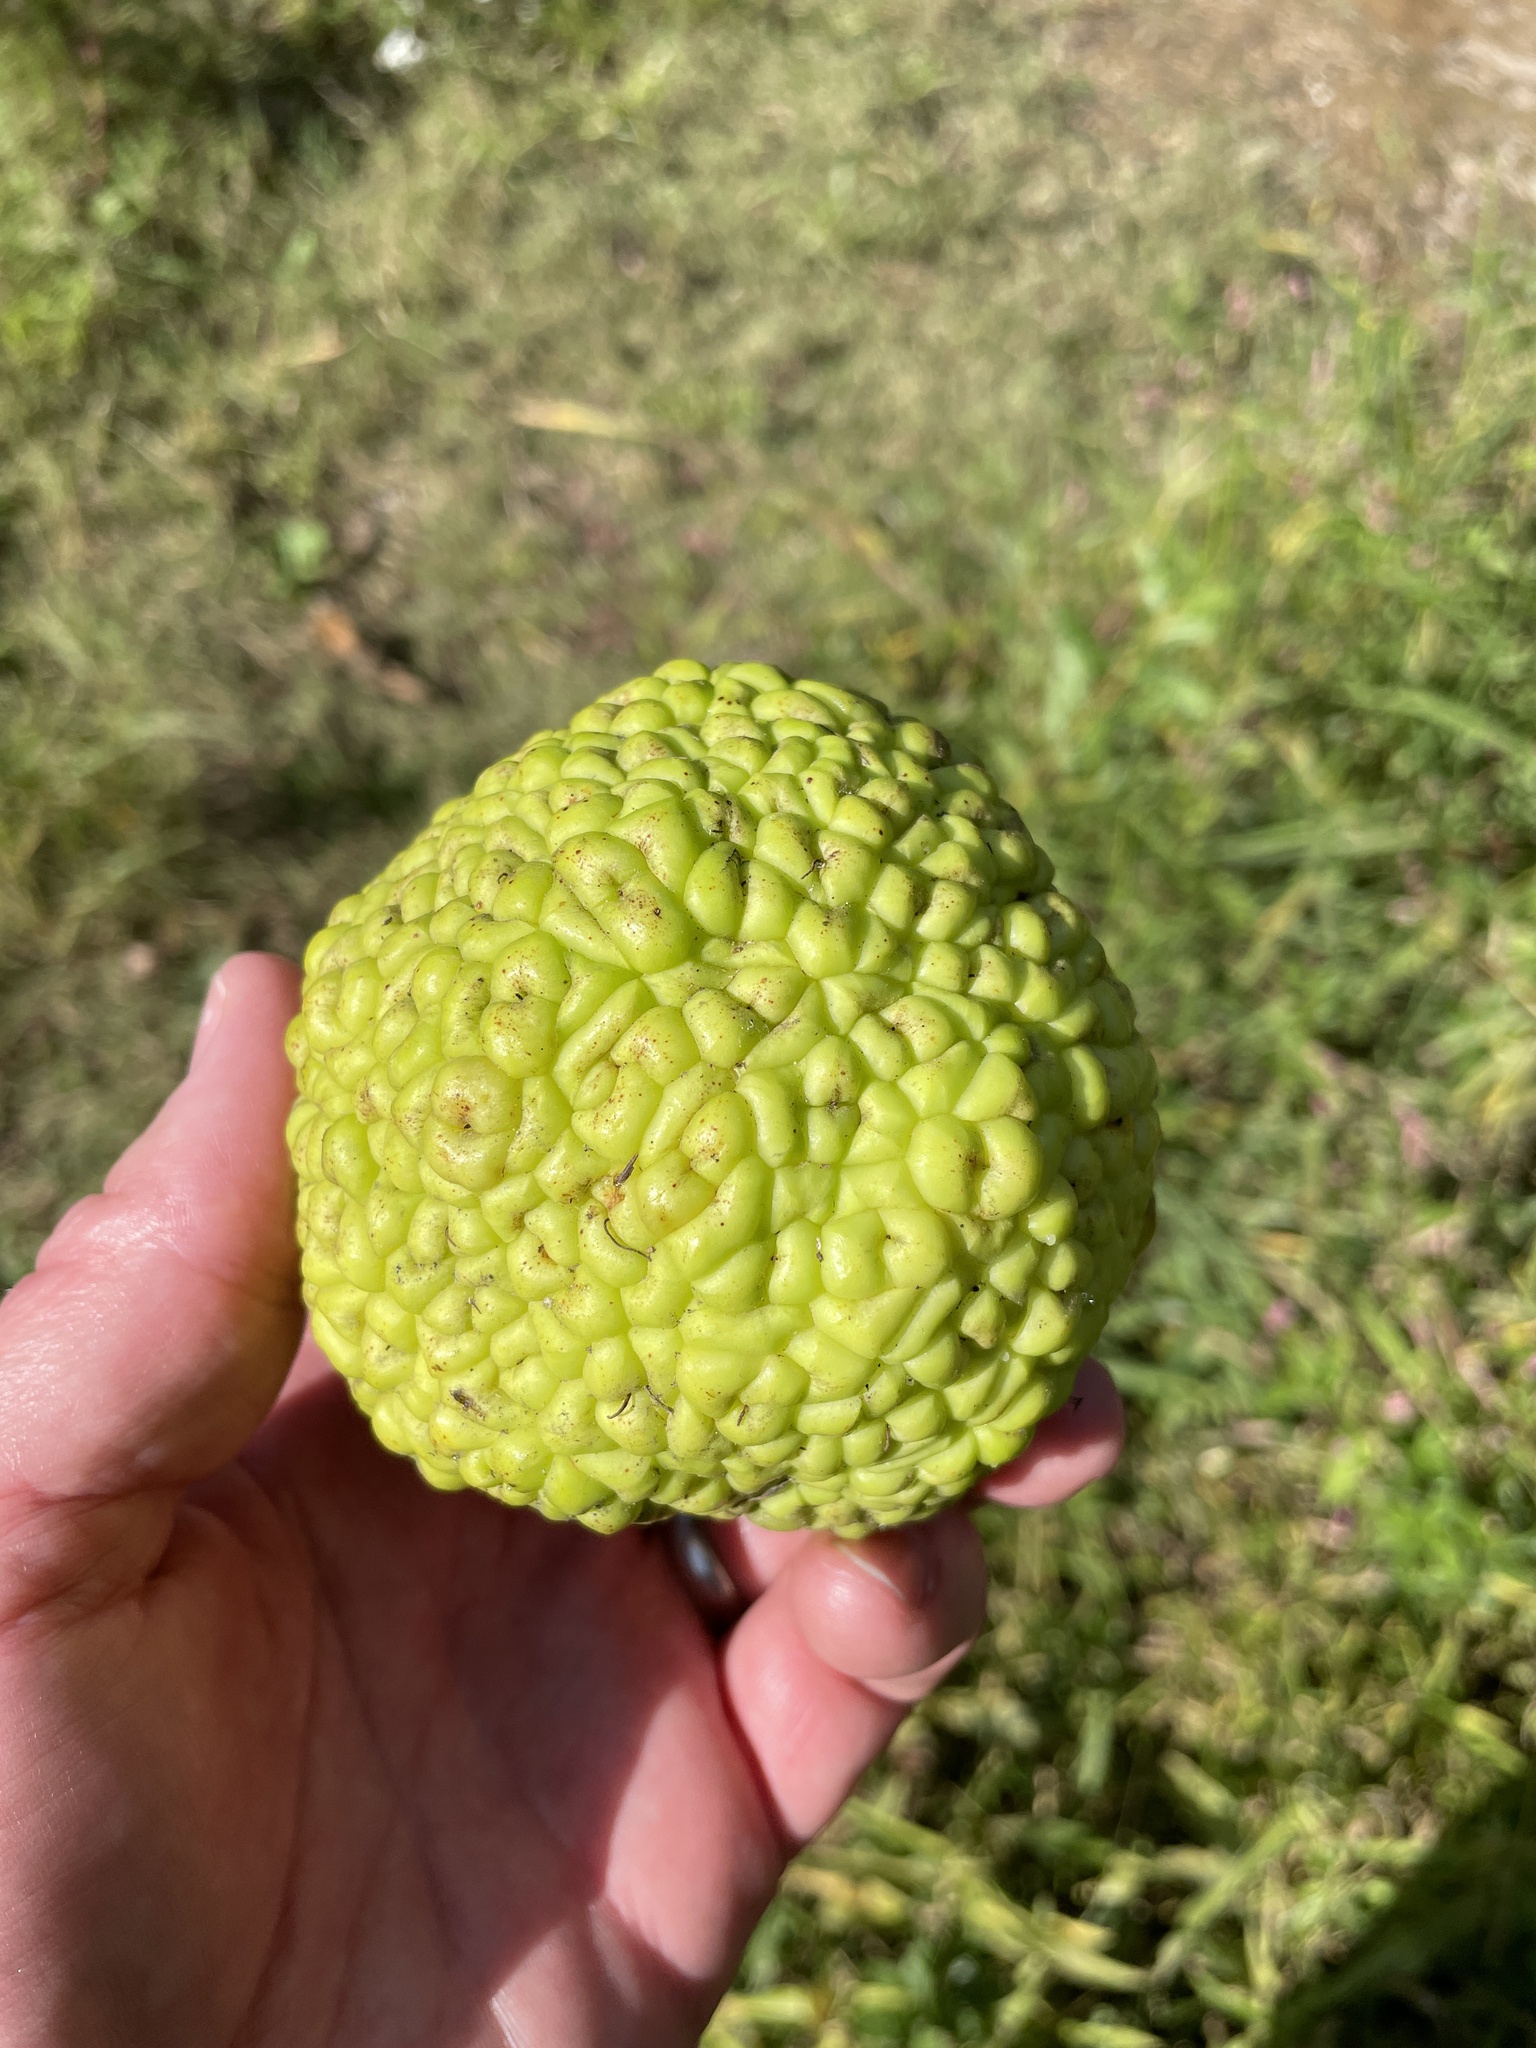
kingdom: Plantae
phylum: Tracheophyta
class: Magnoliopsida
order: Rosales
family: Moraceae
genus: Maclura
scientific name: Maclura pomifera
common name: Osage-orange
